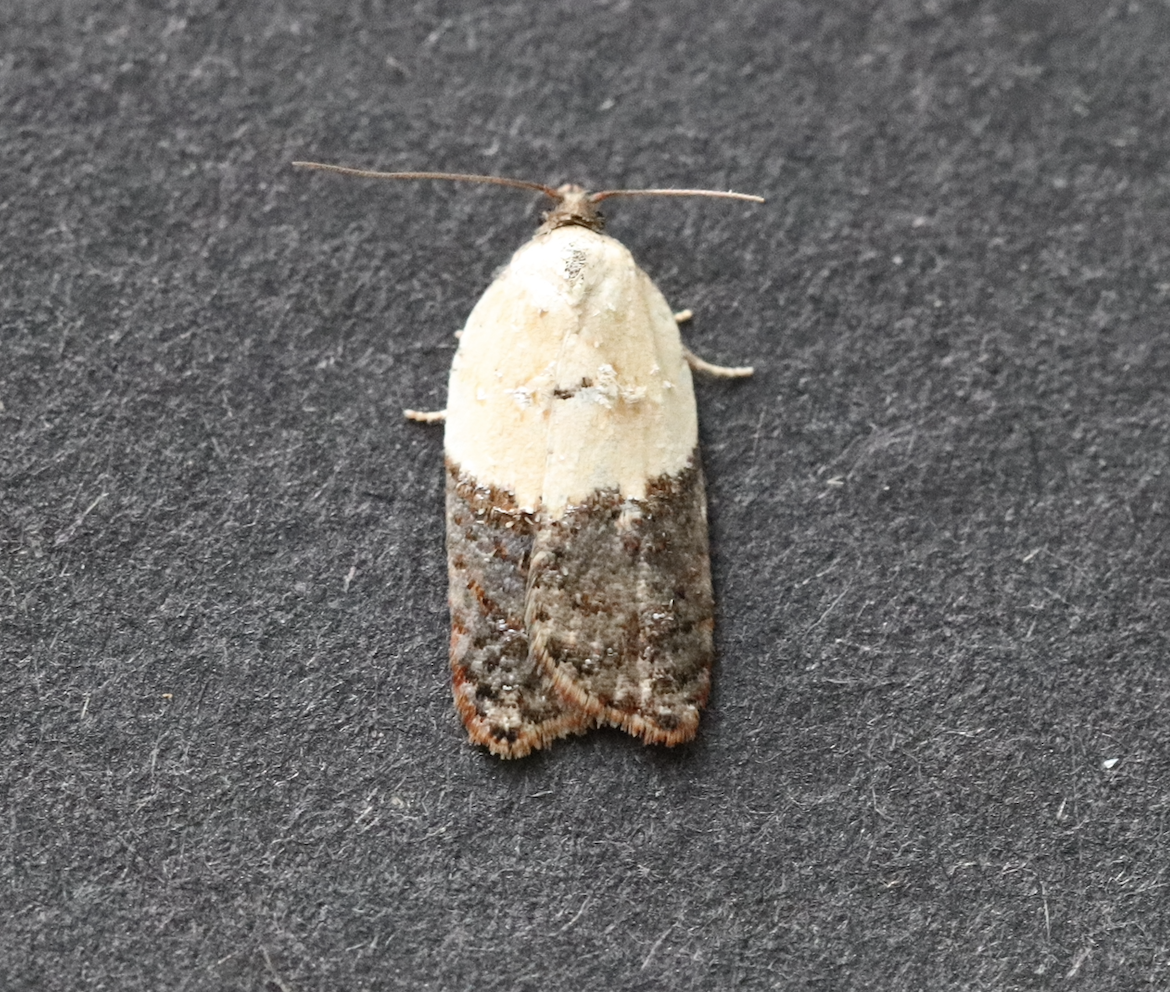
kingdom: Animalia
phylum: Arthropoda
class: Insecta
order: Lepidoptera
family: Tortricidae
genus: Acleris
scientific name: Acleris variegana
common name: Garden rose tortrix
